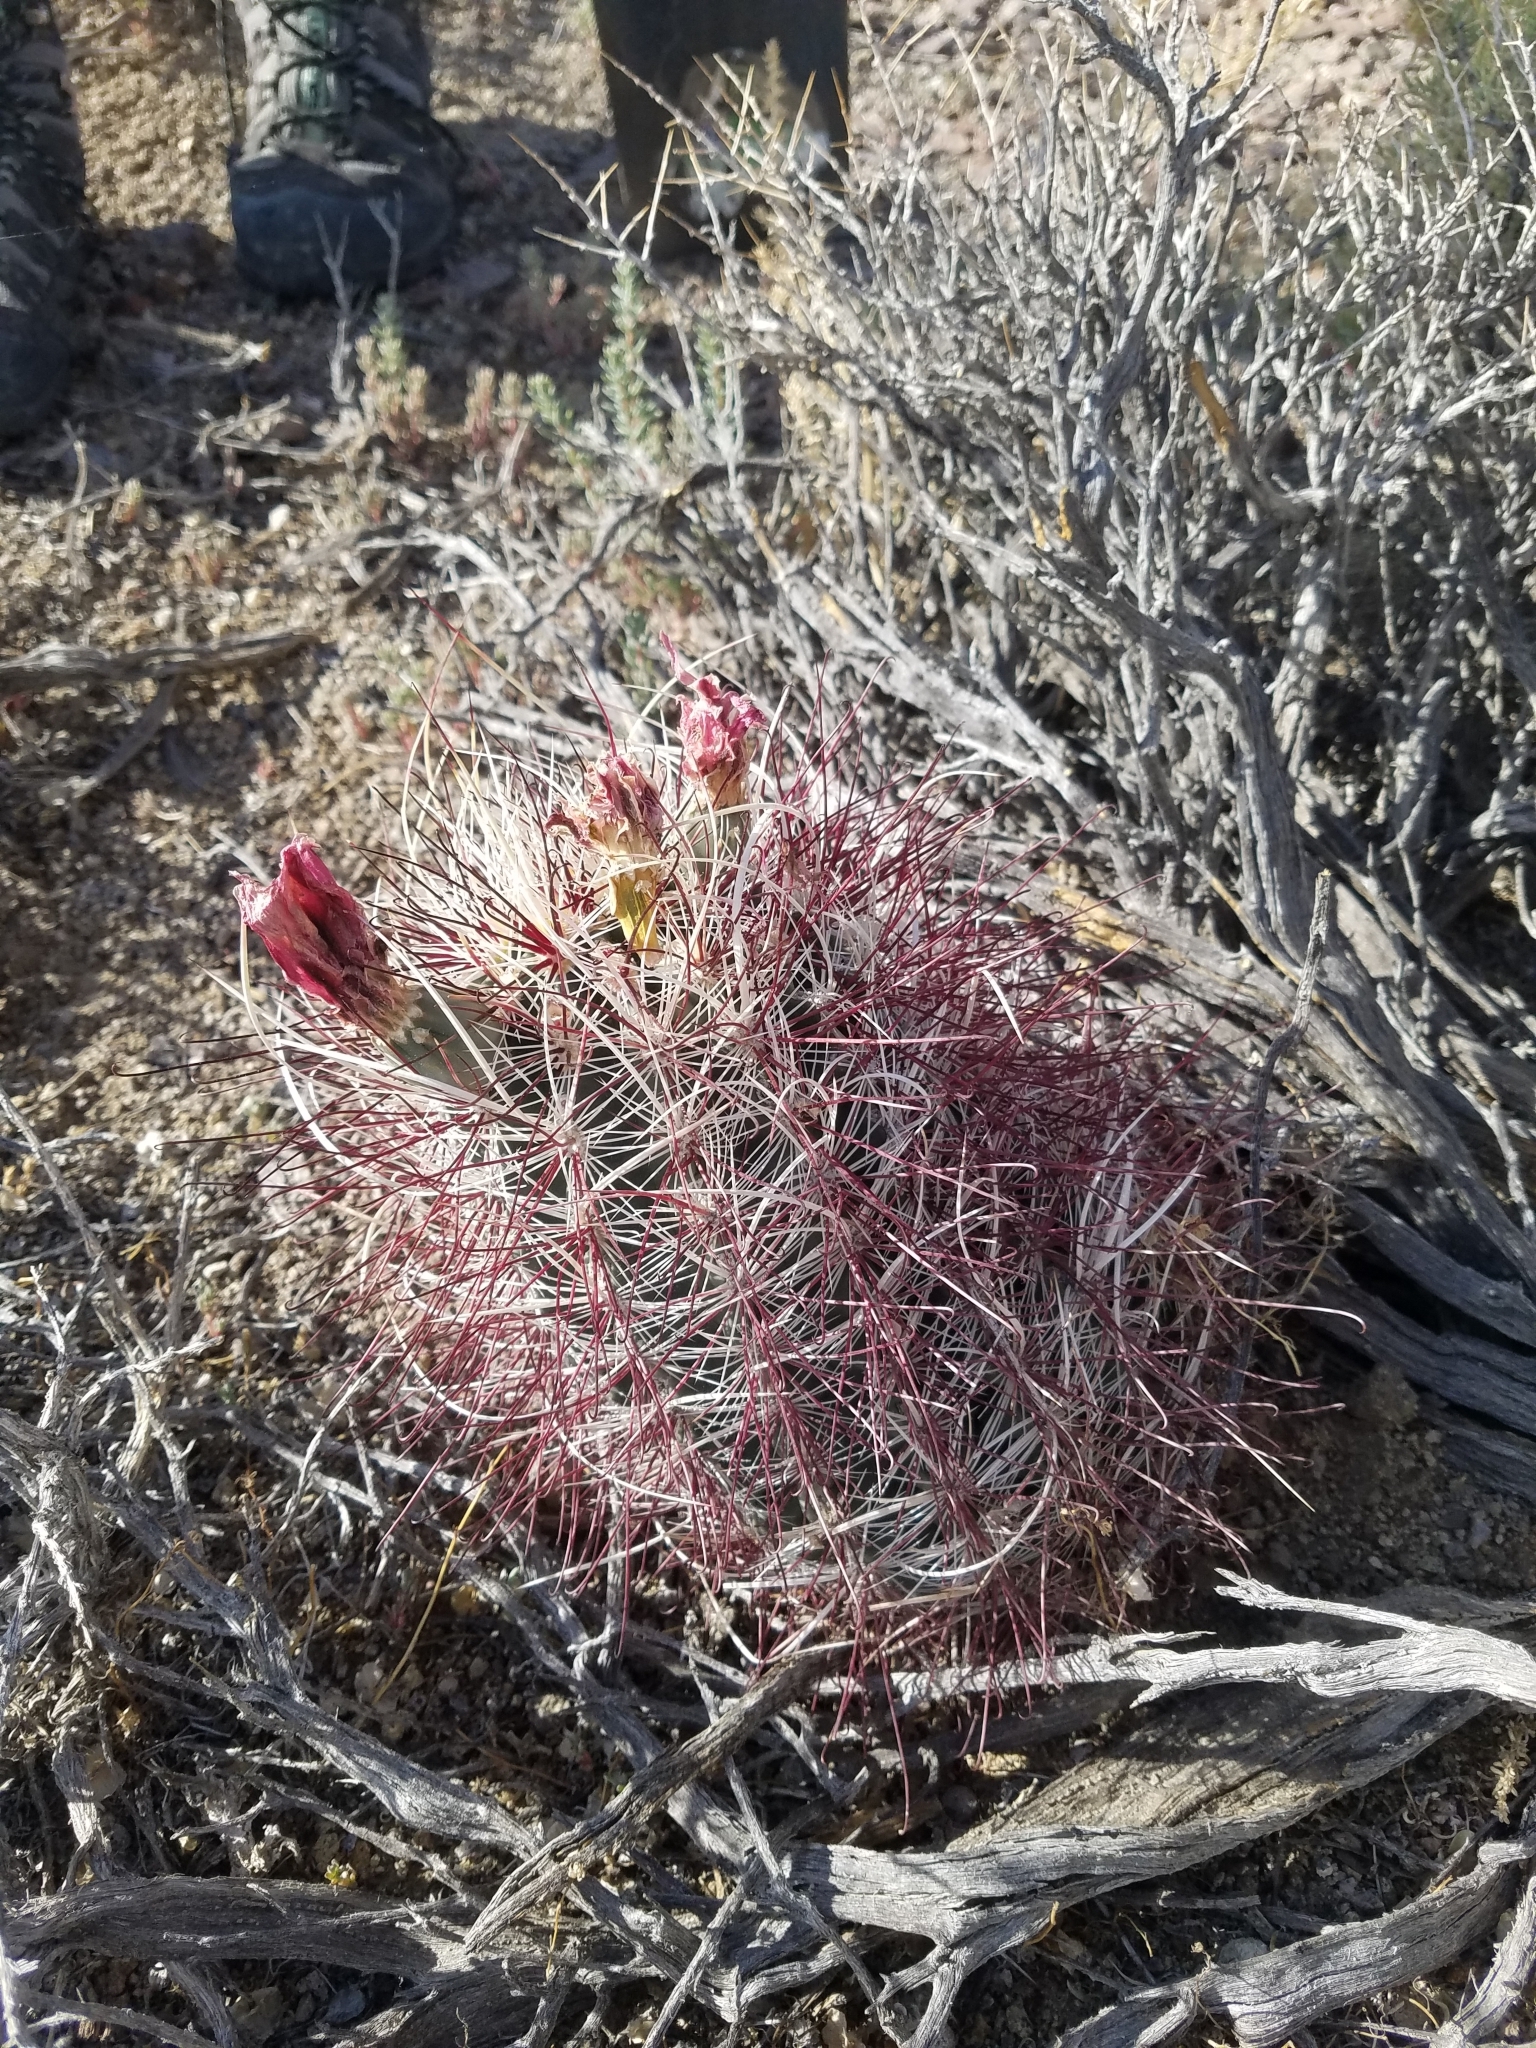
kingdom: Plantae
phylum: Tracheophyta
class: Magnoliopsida
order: Caryophyllales
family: Cactaceae
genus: Sclerocactus
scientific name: Sclerocactus polyancistrus
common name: Mohave fishhook cactus
